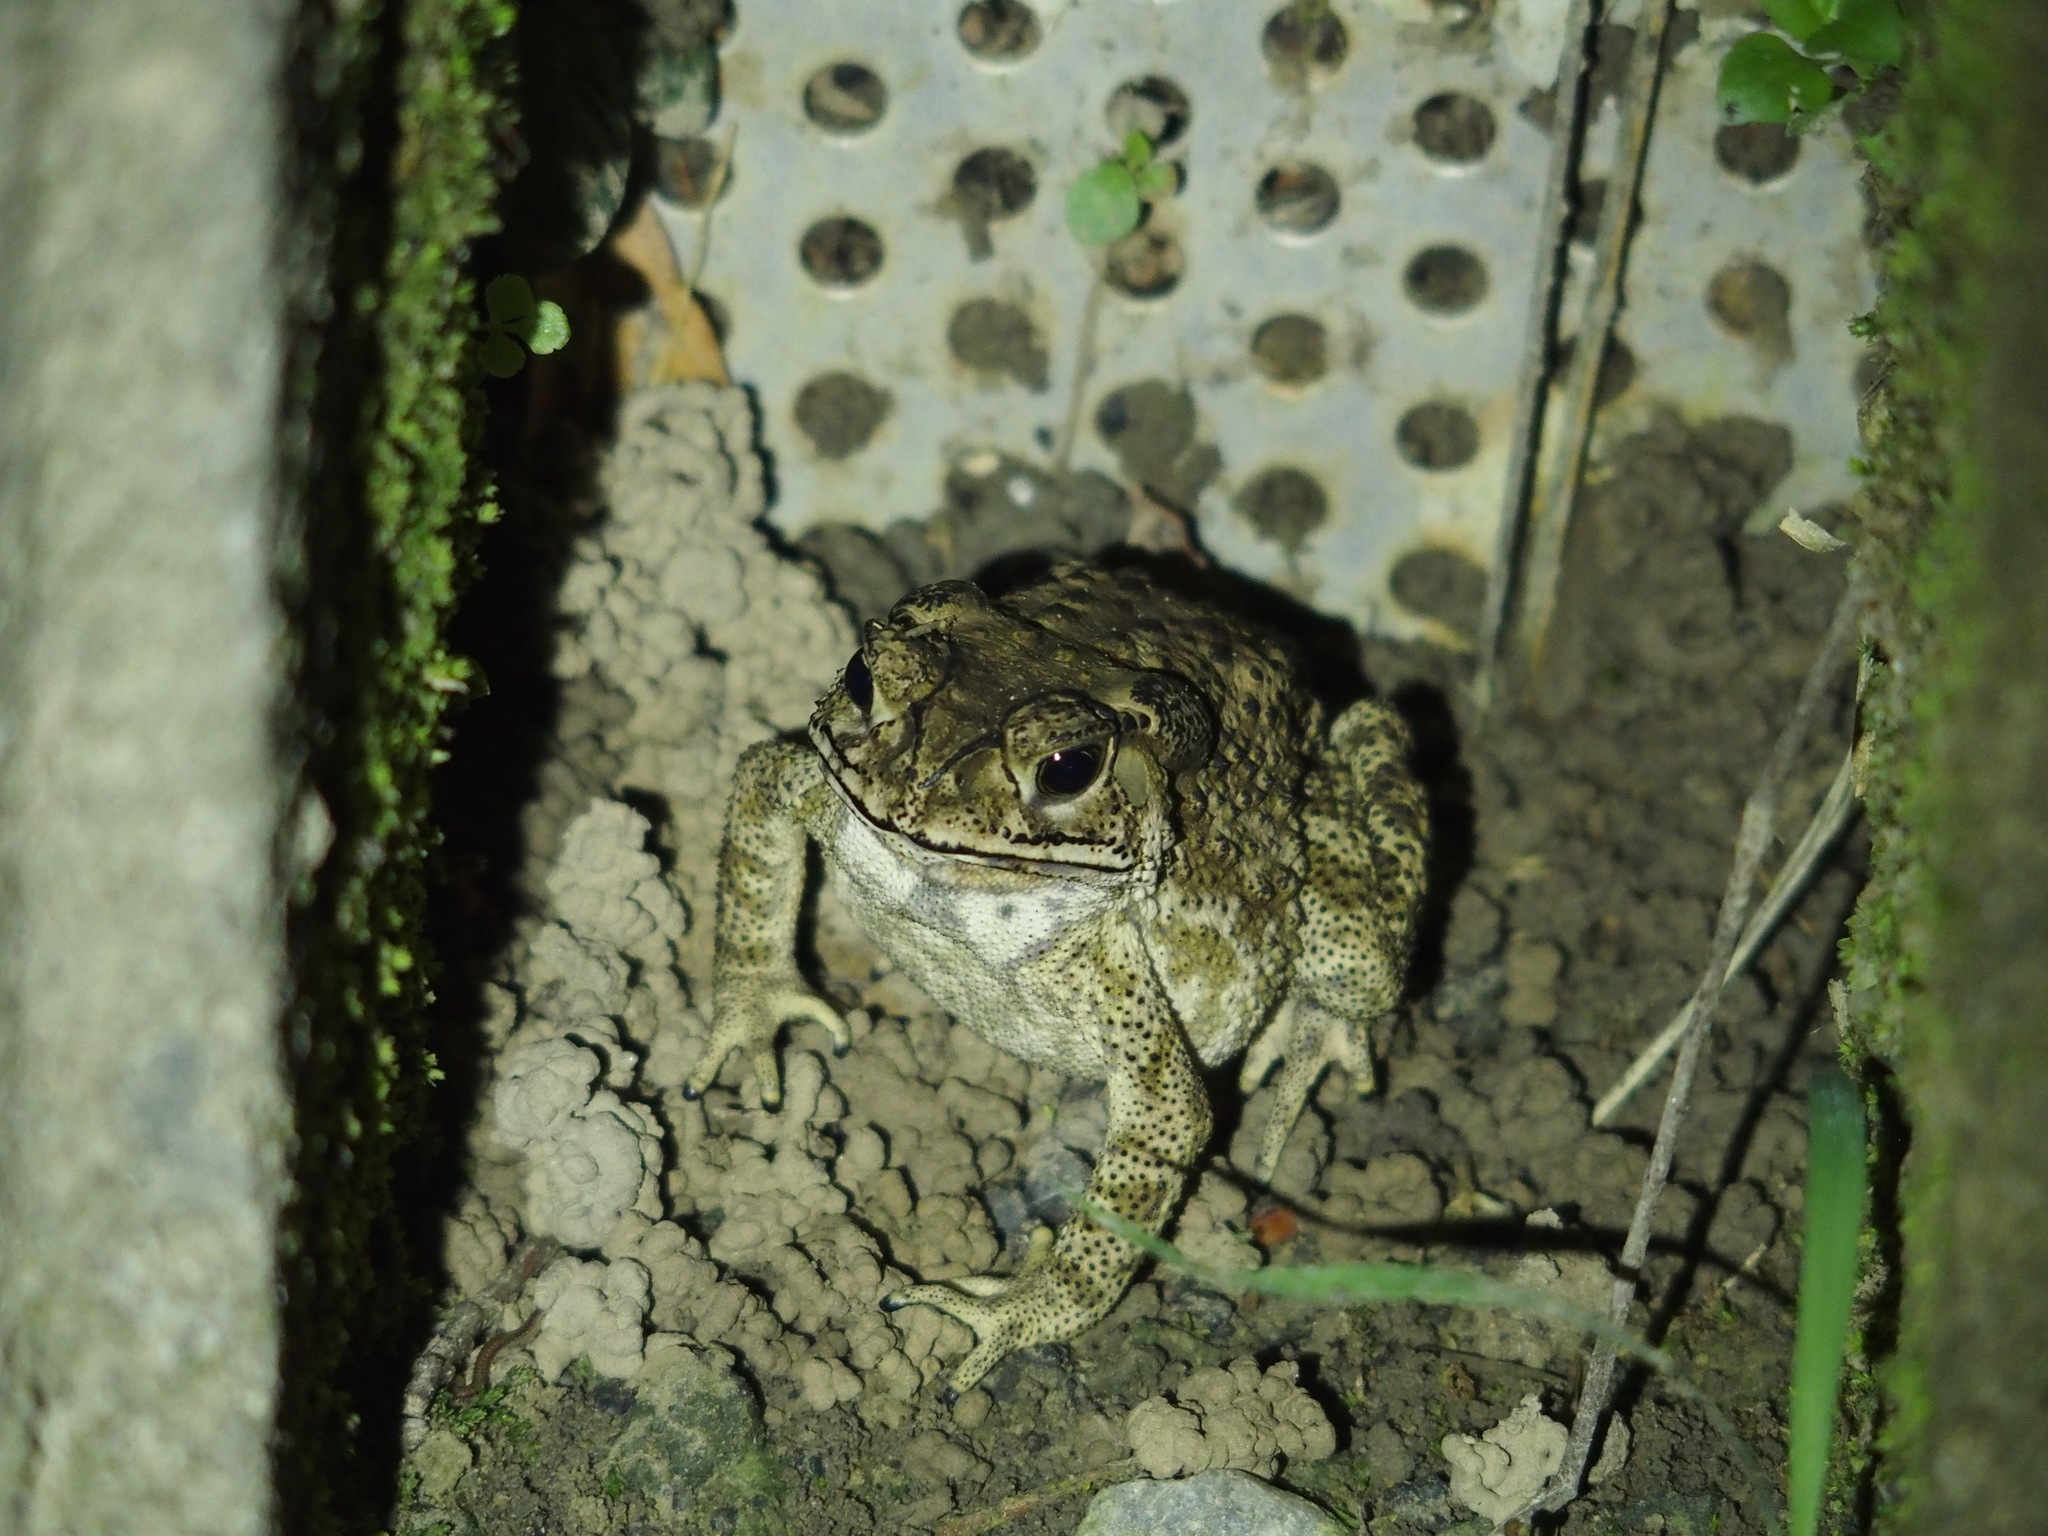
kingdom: Animalia
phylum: Chordata
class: Amphibia
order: Anura
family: Bufonidae
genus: Duttaphrynus
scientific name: Duttaphrynus melanostictus
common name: Common sunda toad
